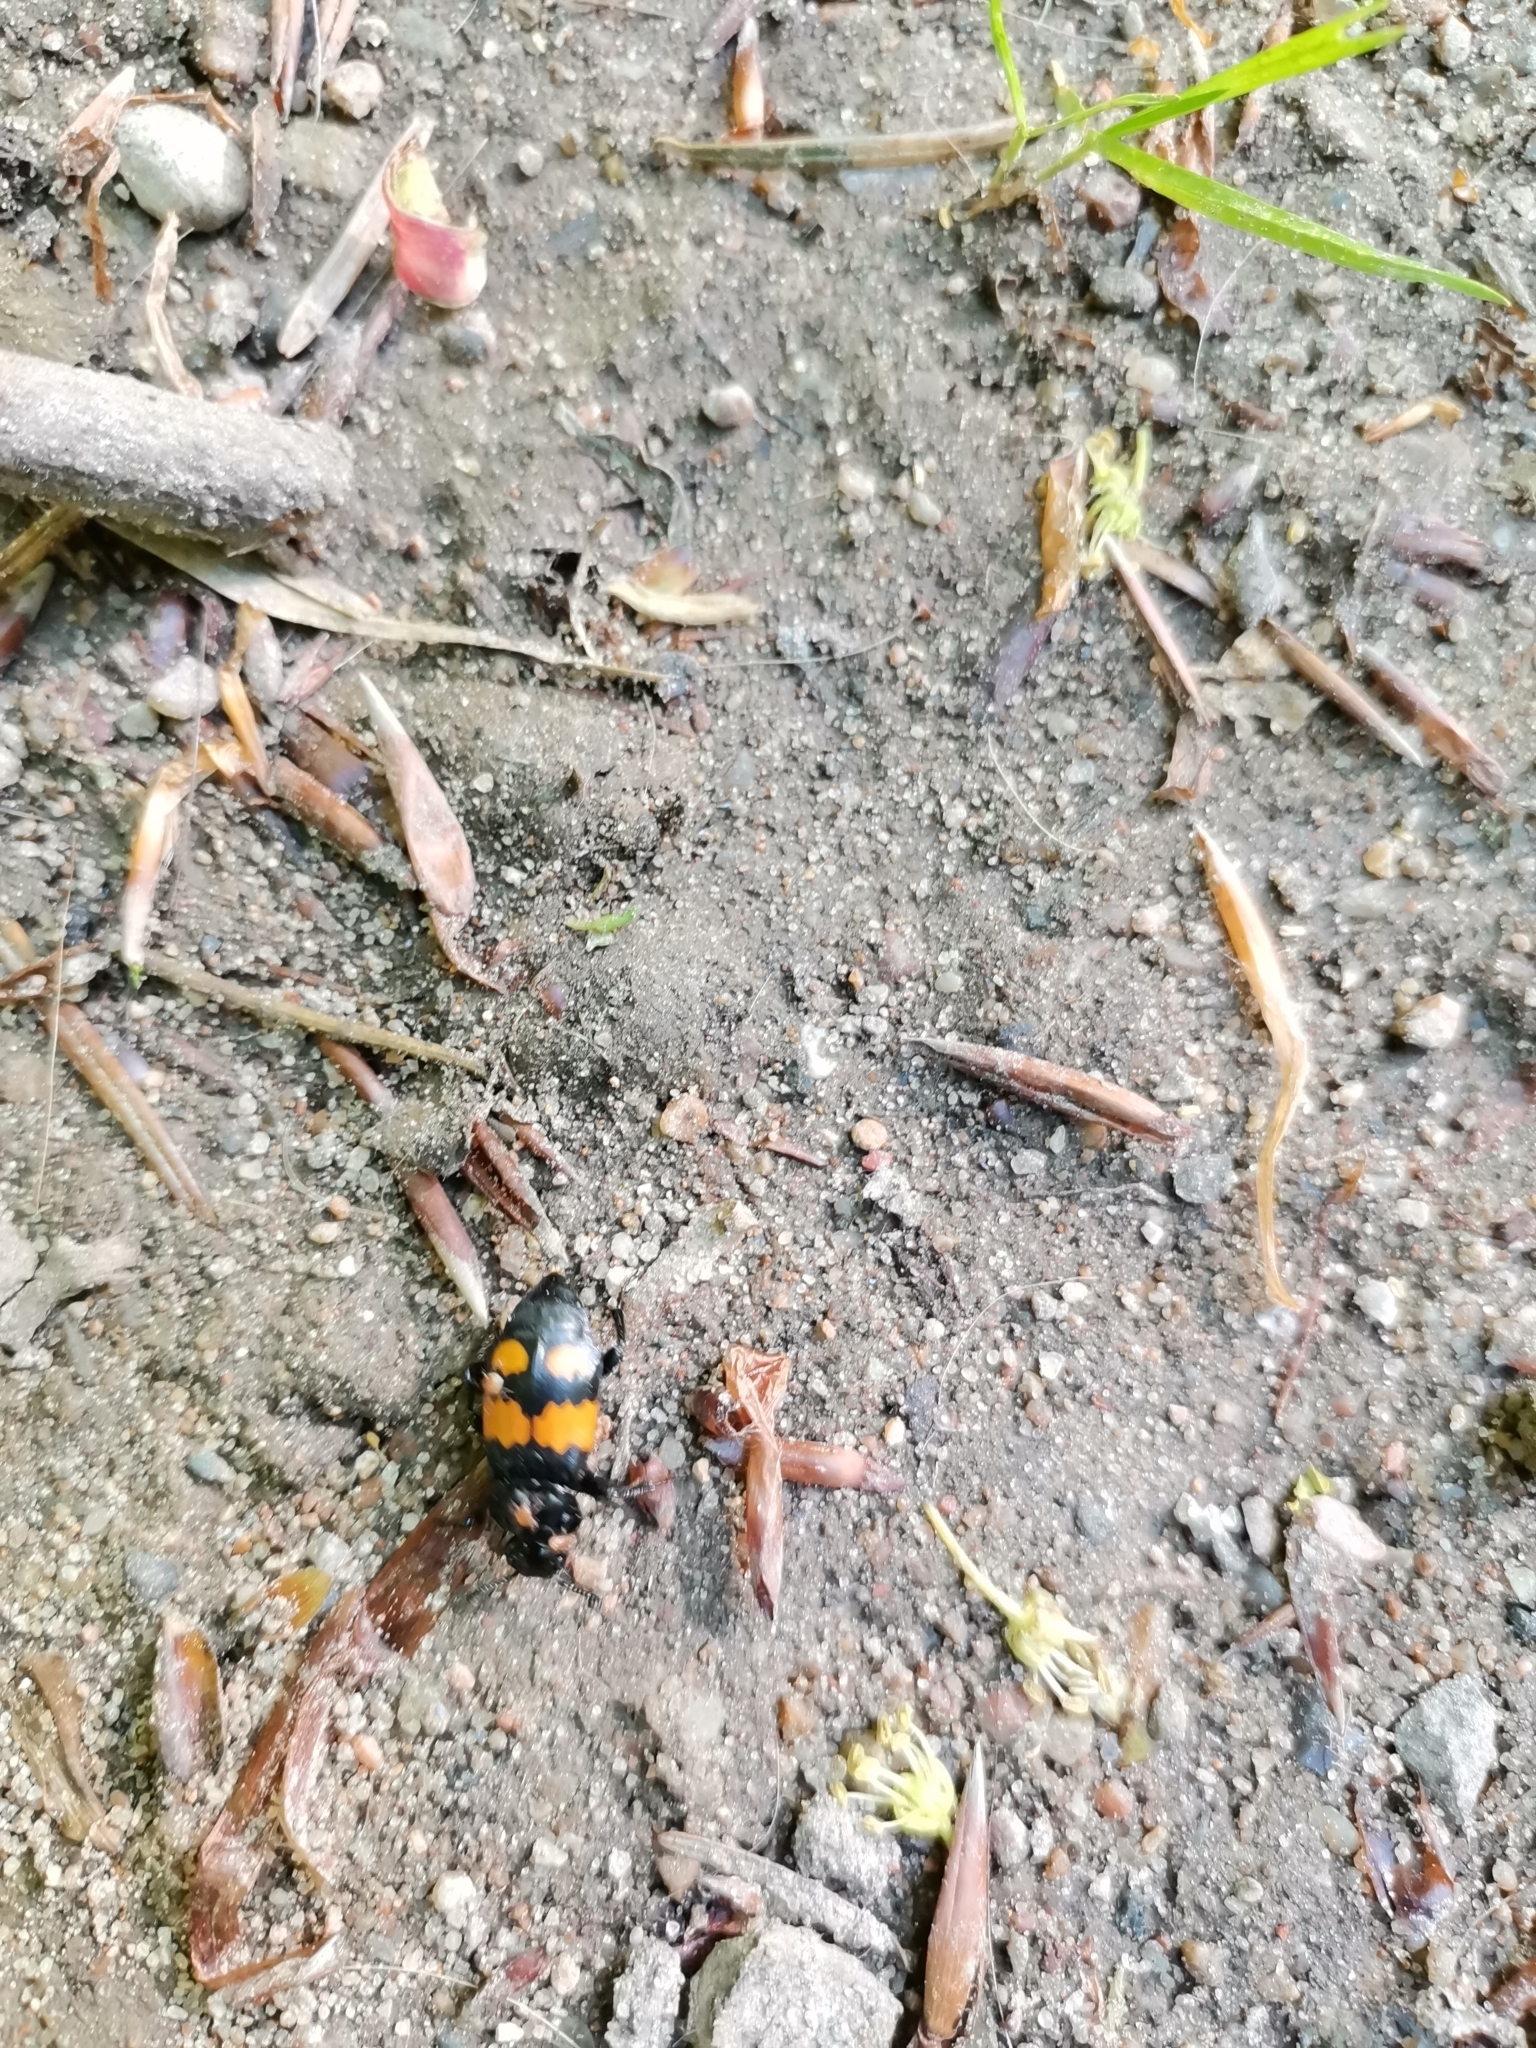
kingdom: Animalia
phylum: Arthropoda
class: Insecta
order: Coleoptera
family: Staphylinidae
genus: Nicrophorus
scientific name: Nicrophorus vespilloides
